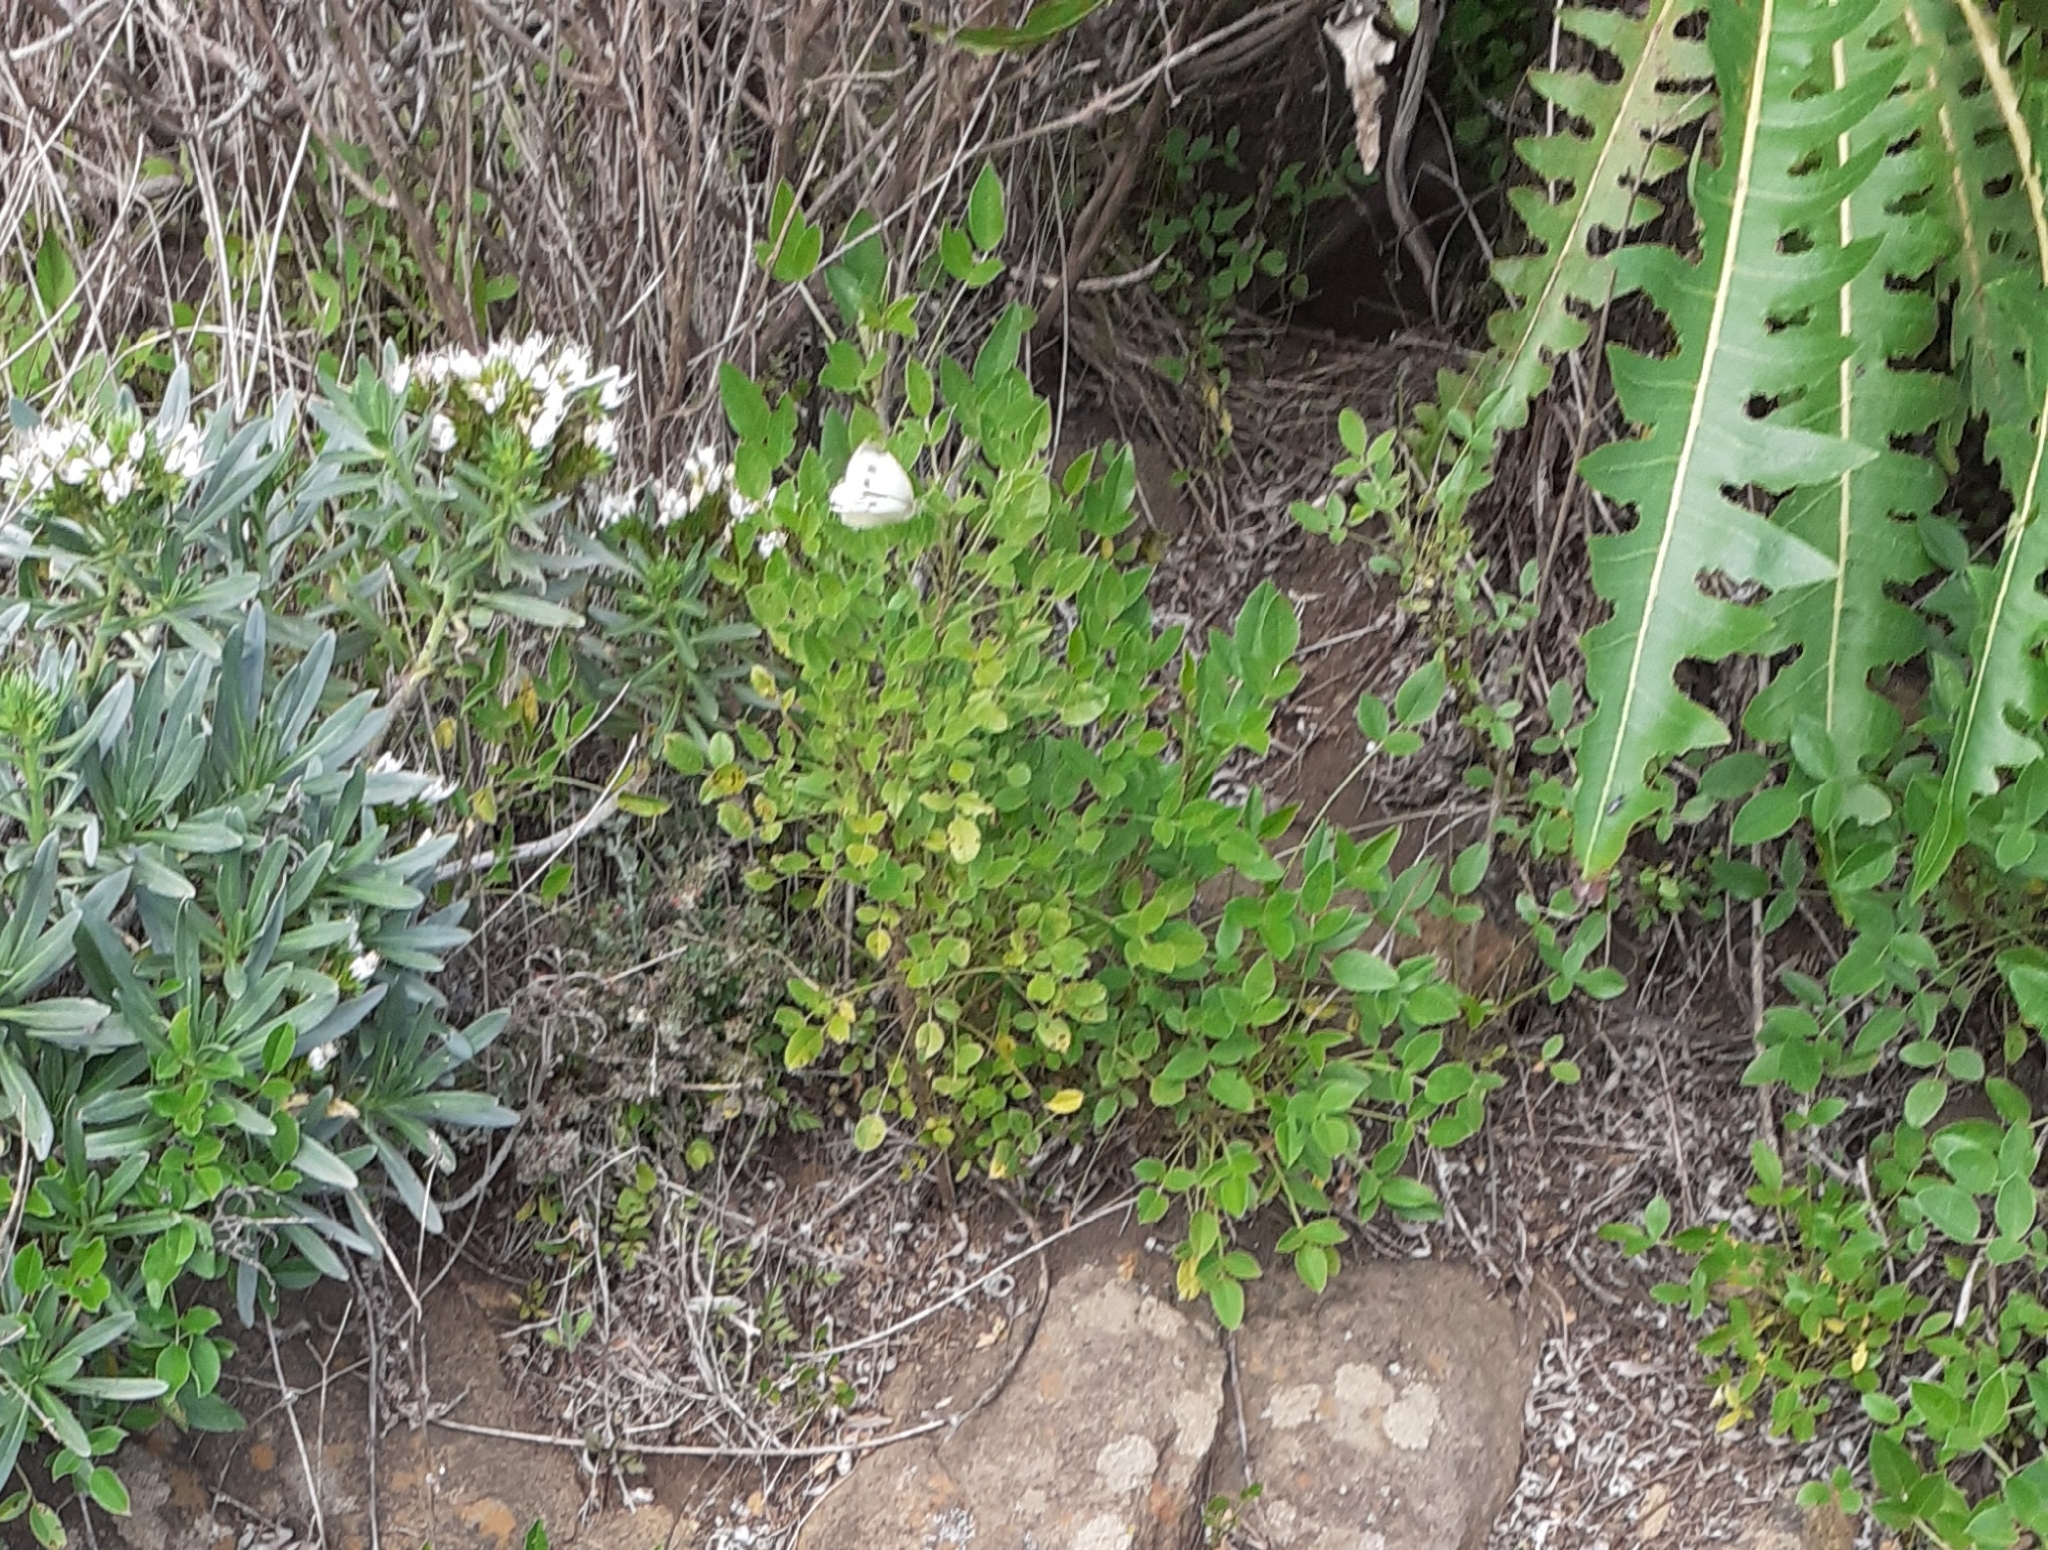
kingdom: Animalia
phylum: Arthropoda
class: Insecta
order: Lepidoptera
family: Pieridae
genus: Pieris
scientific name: Pieris rapae
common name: Small white
